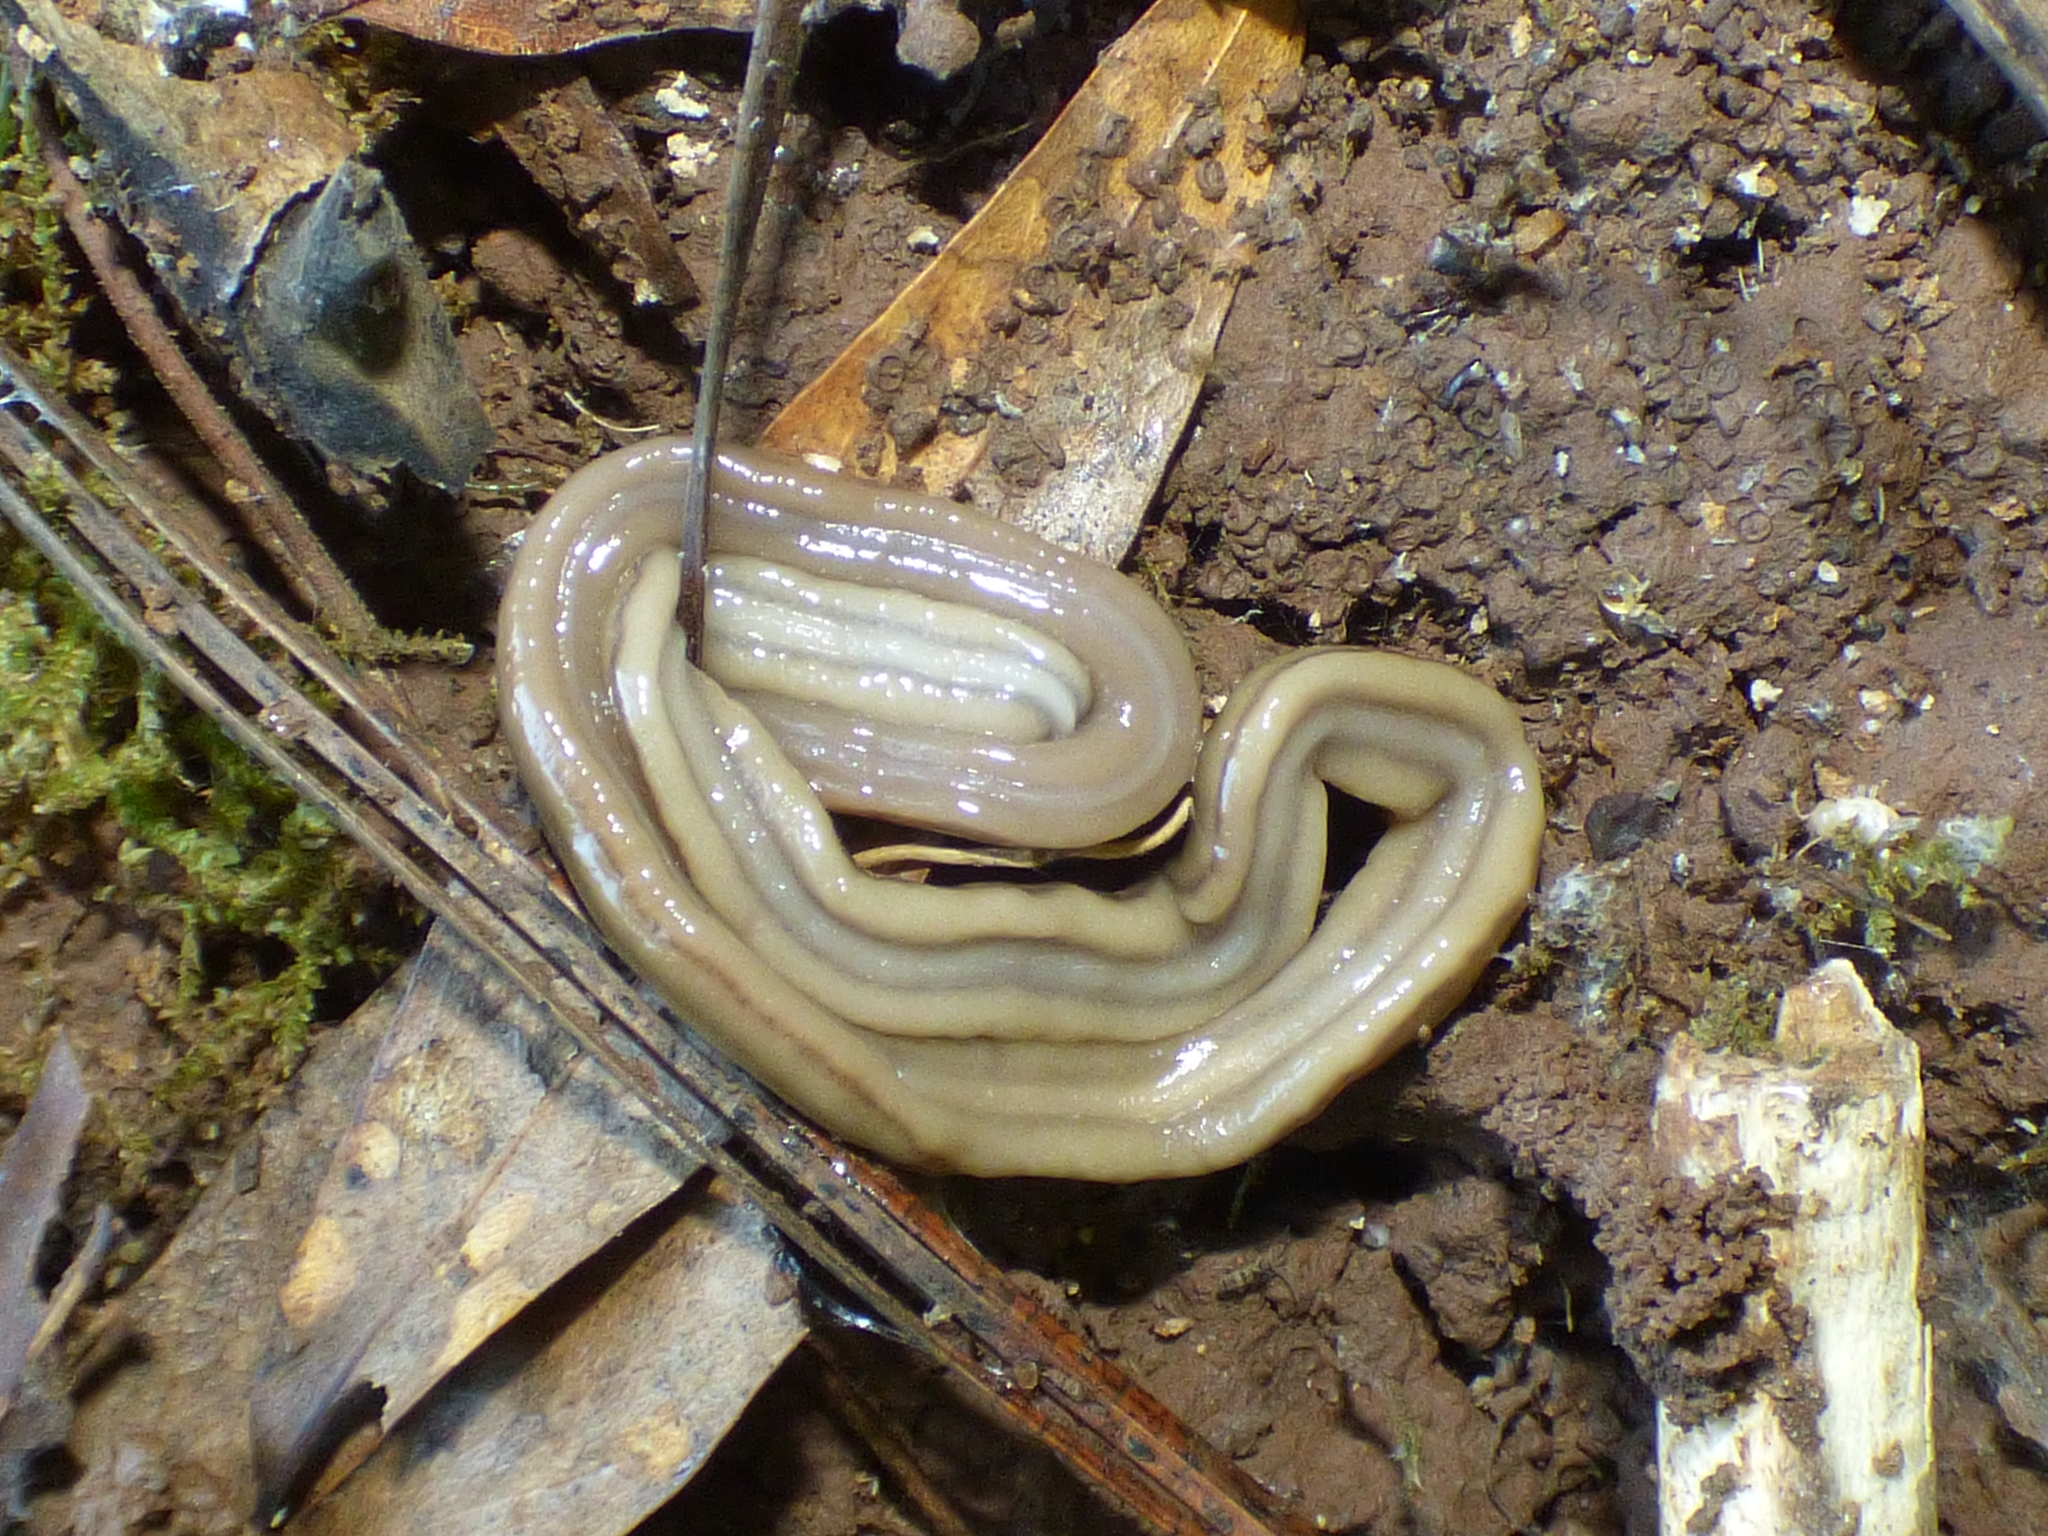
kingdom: Animalia
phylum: Platyhelminthes
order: Tricladida
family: Geoplanidae
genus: Bipalium
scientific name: Bipalium kewense
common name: Hammerhead flatworm
